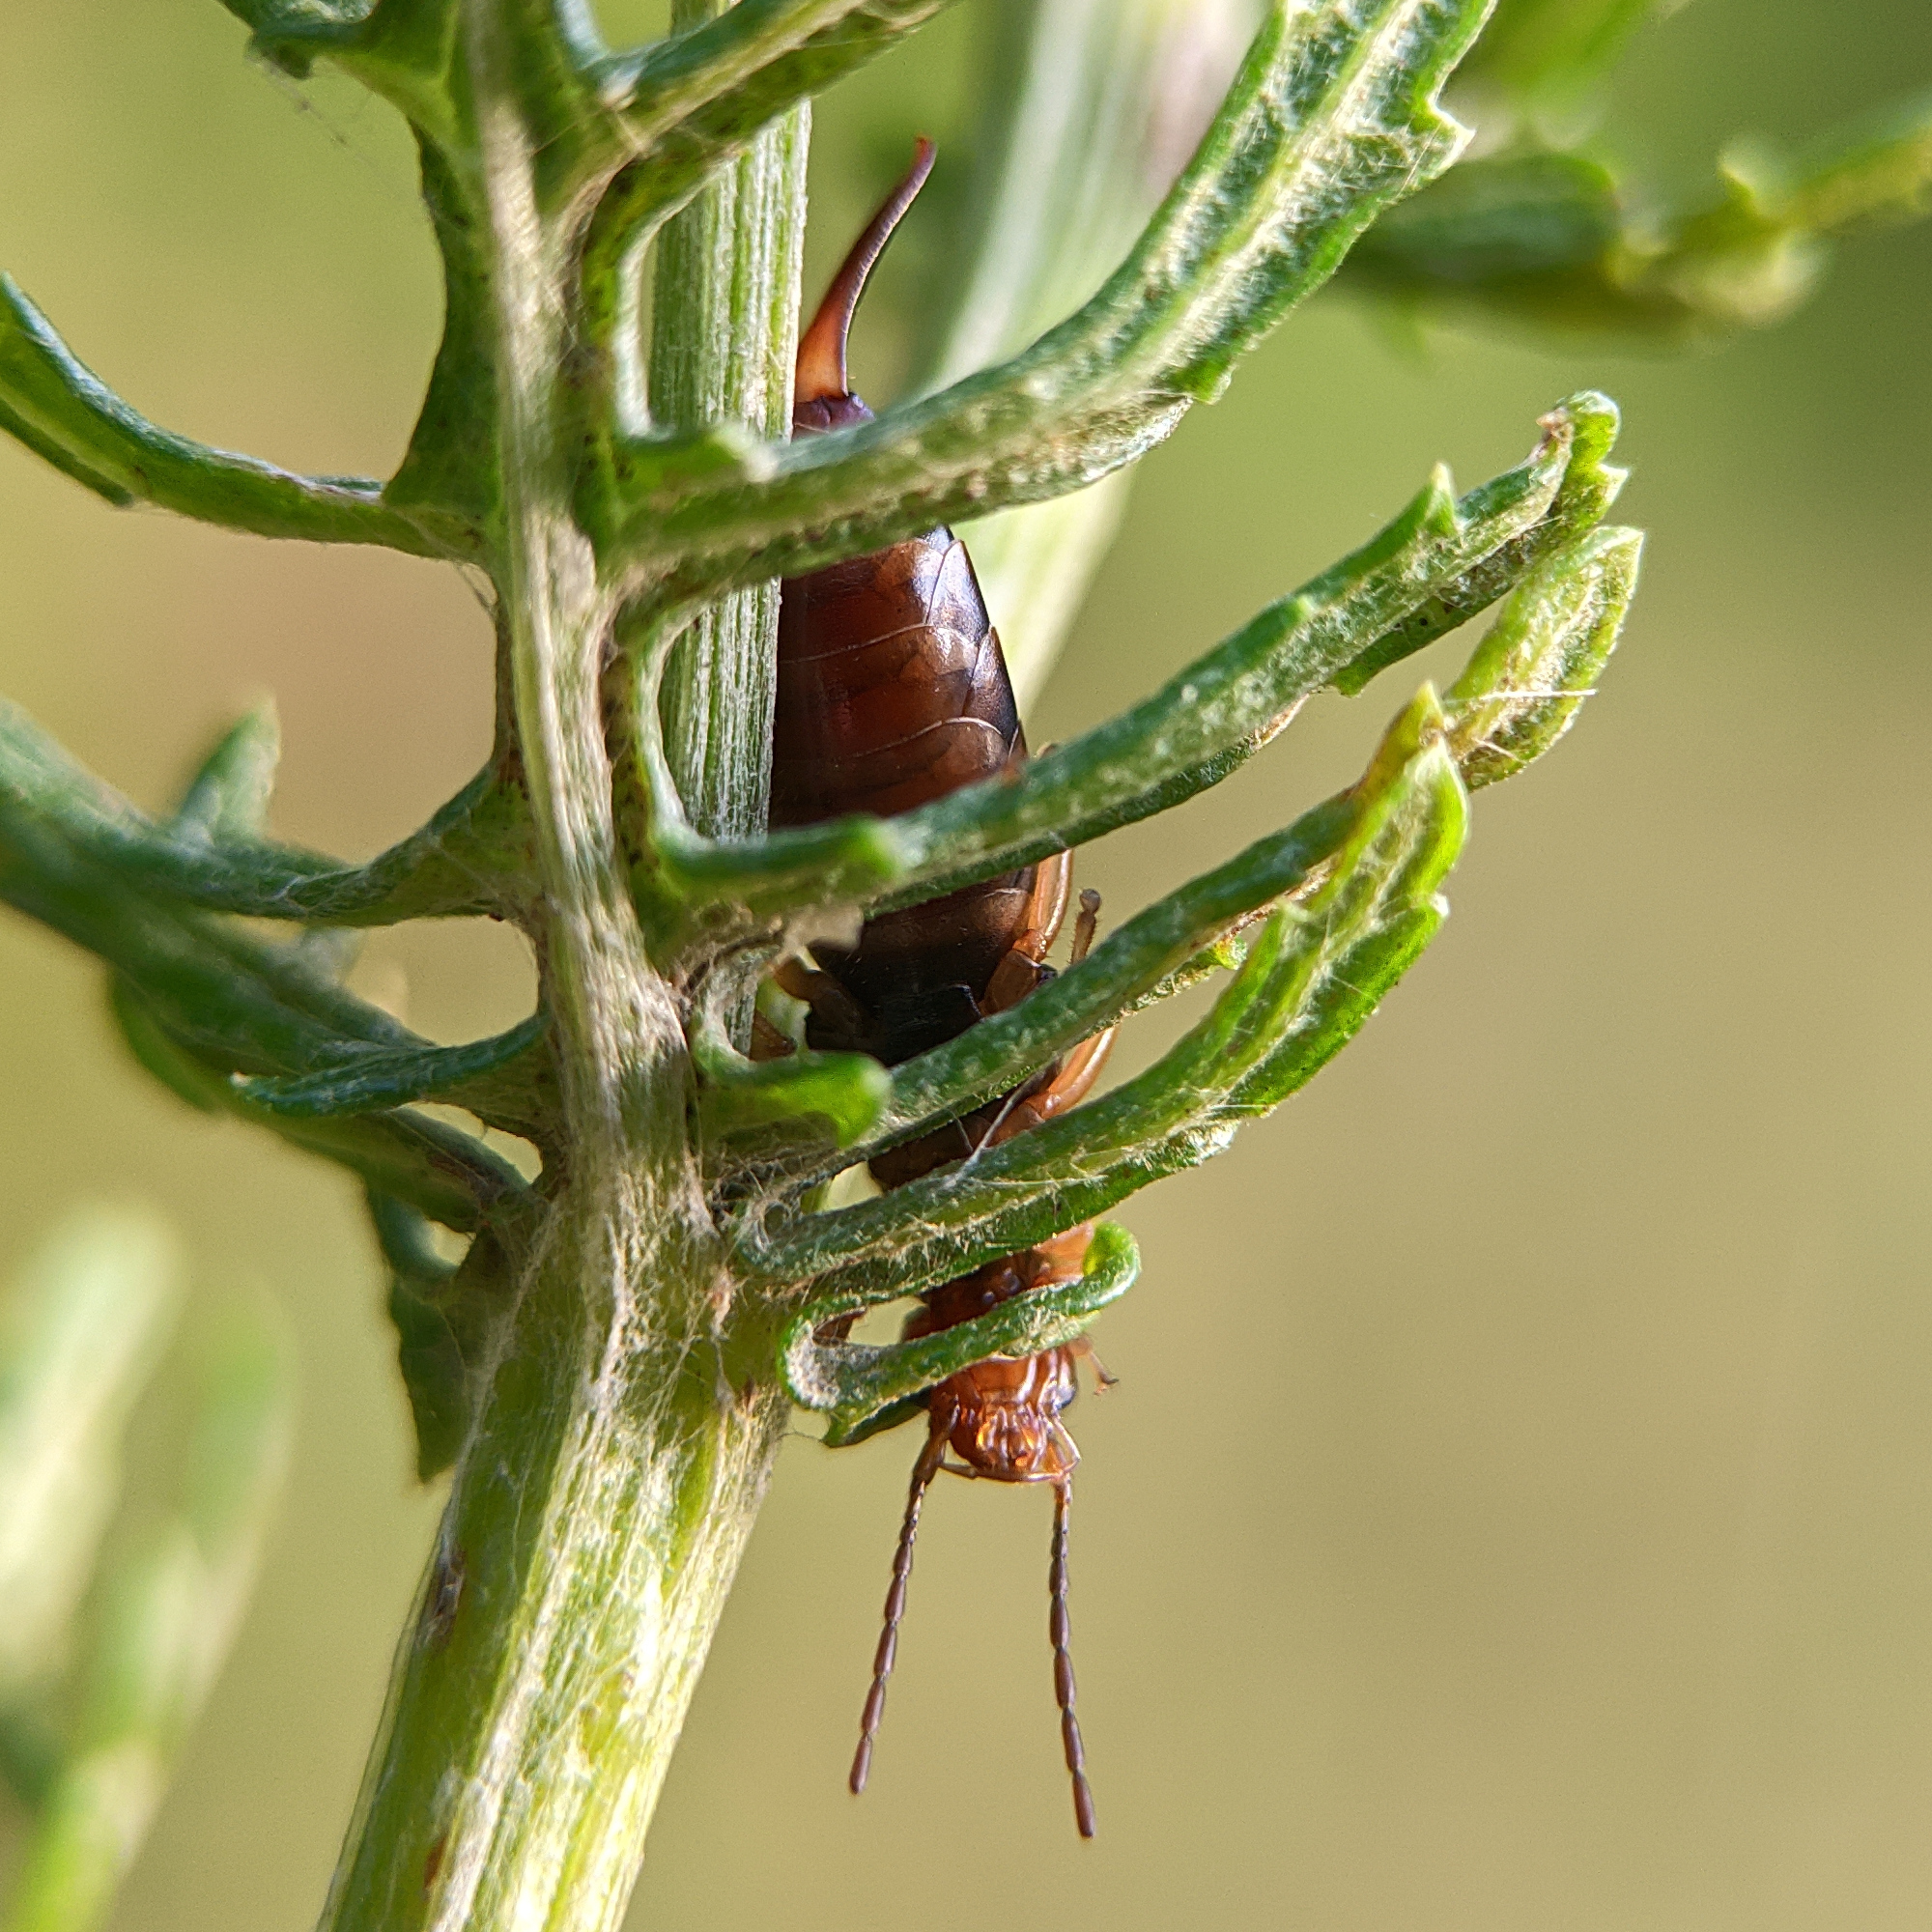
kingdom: Animalia
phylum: Arthropoda
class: Insecta
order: Dermaptera
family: Forficulidae
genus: Forficula
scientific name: Forficula
